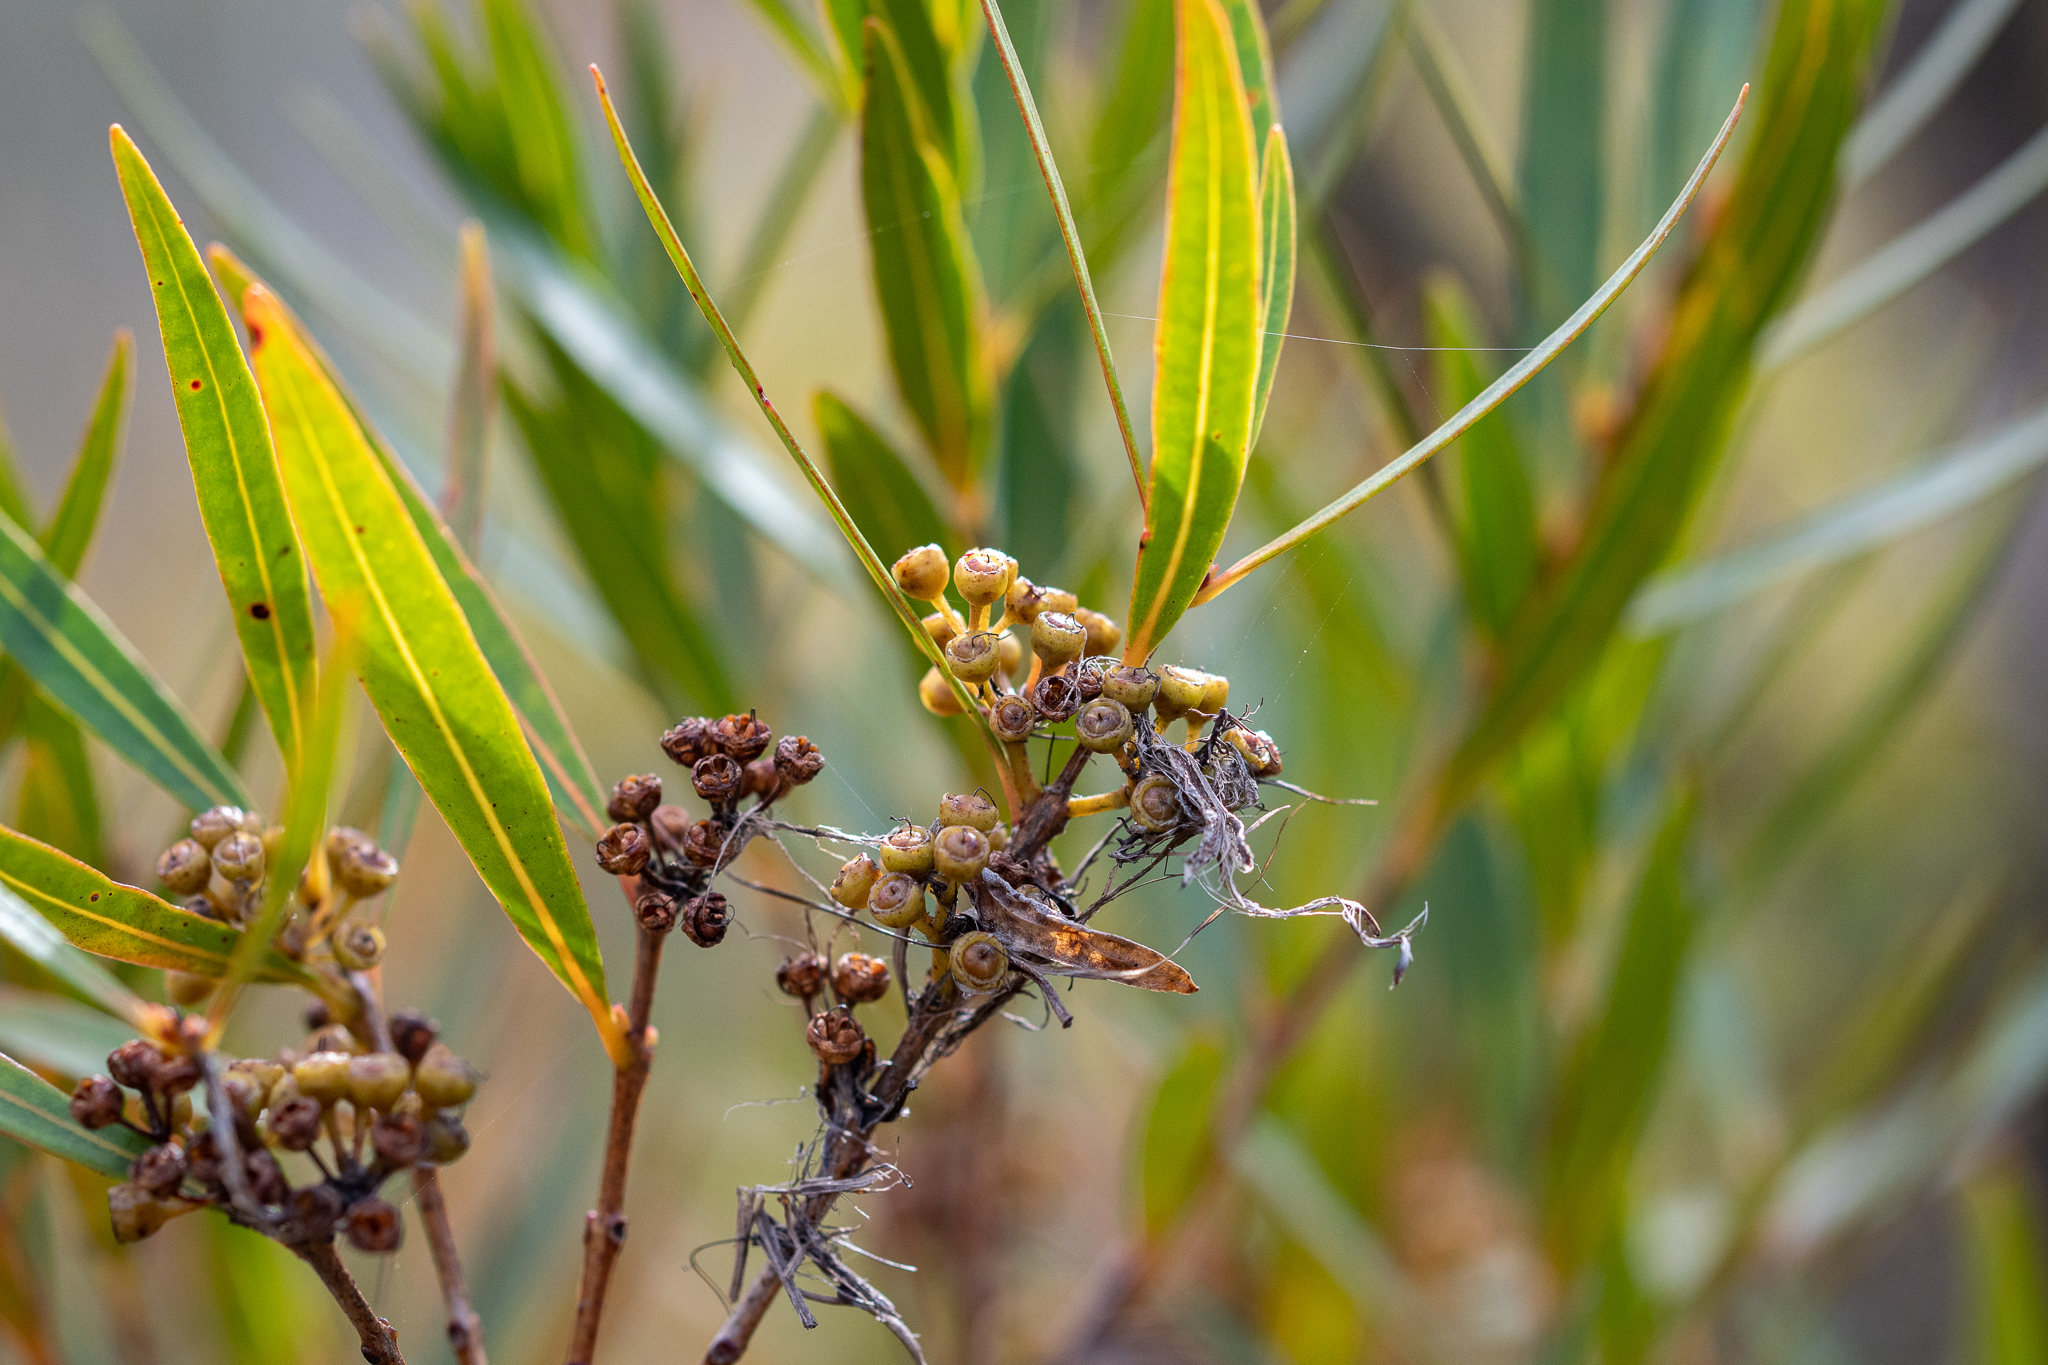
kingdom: Plantae
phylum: Tracheophyta
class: Magnoliopsida
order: Myrtales
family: Myrtaceae
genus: Callistemon
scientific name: Callistemon lanceolatus
